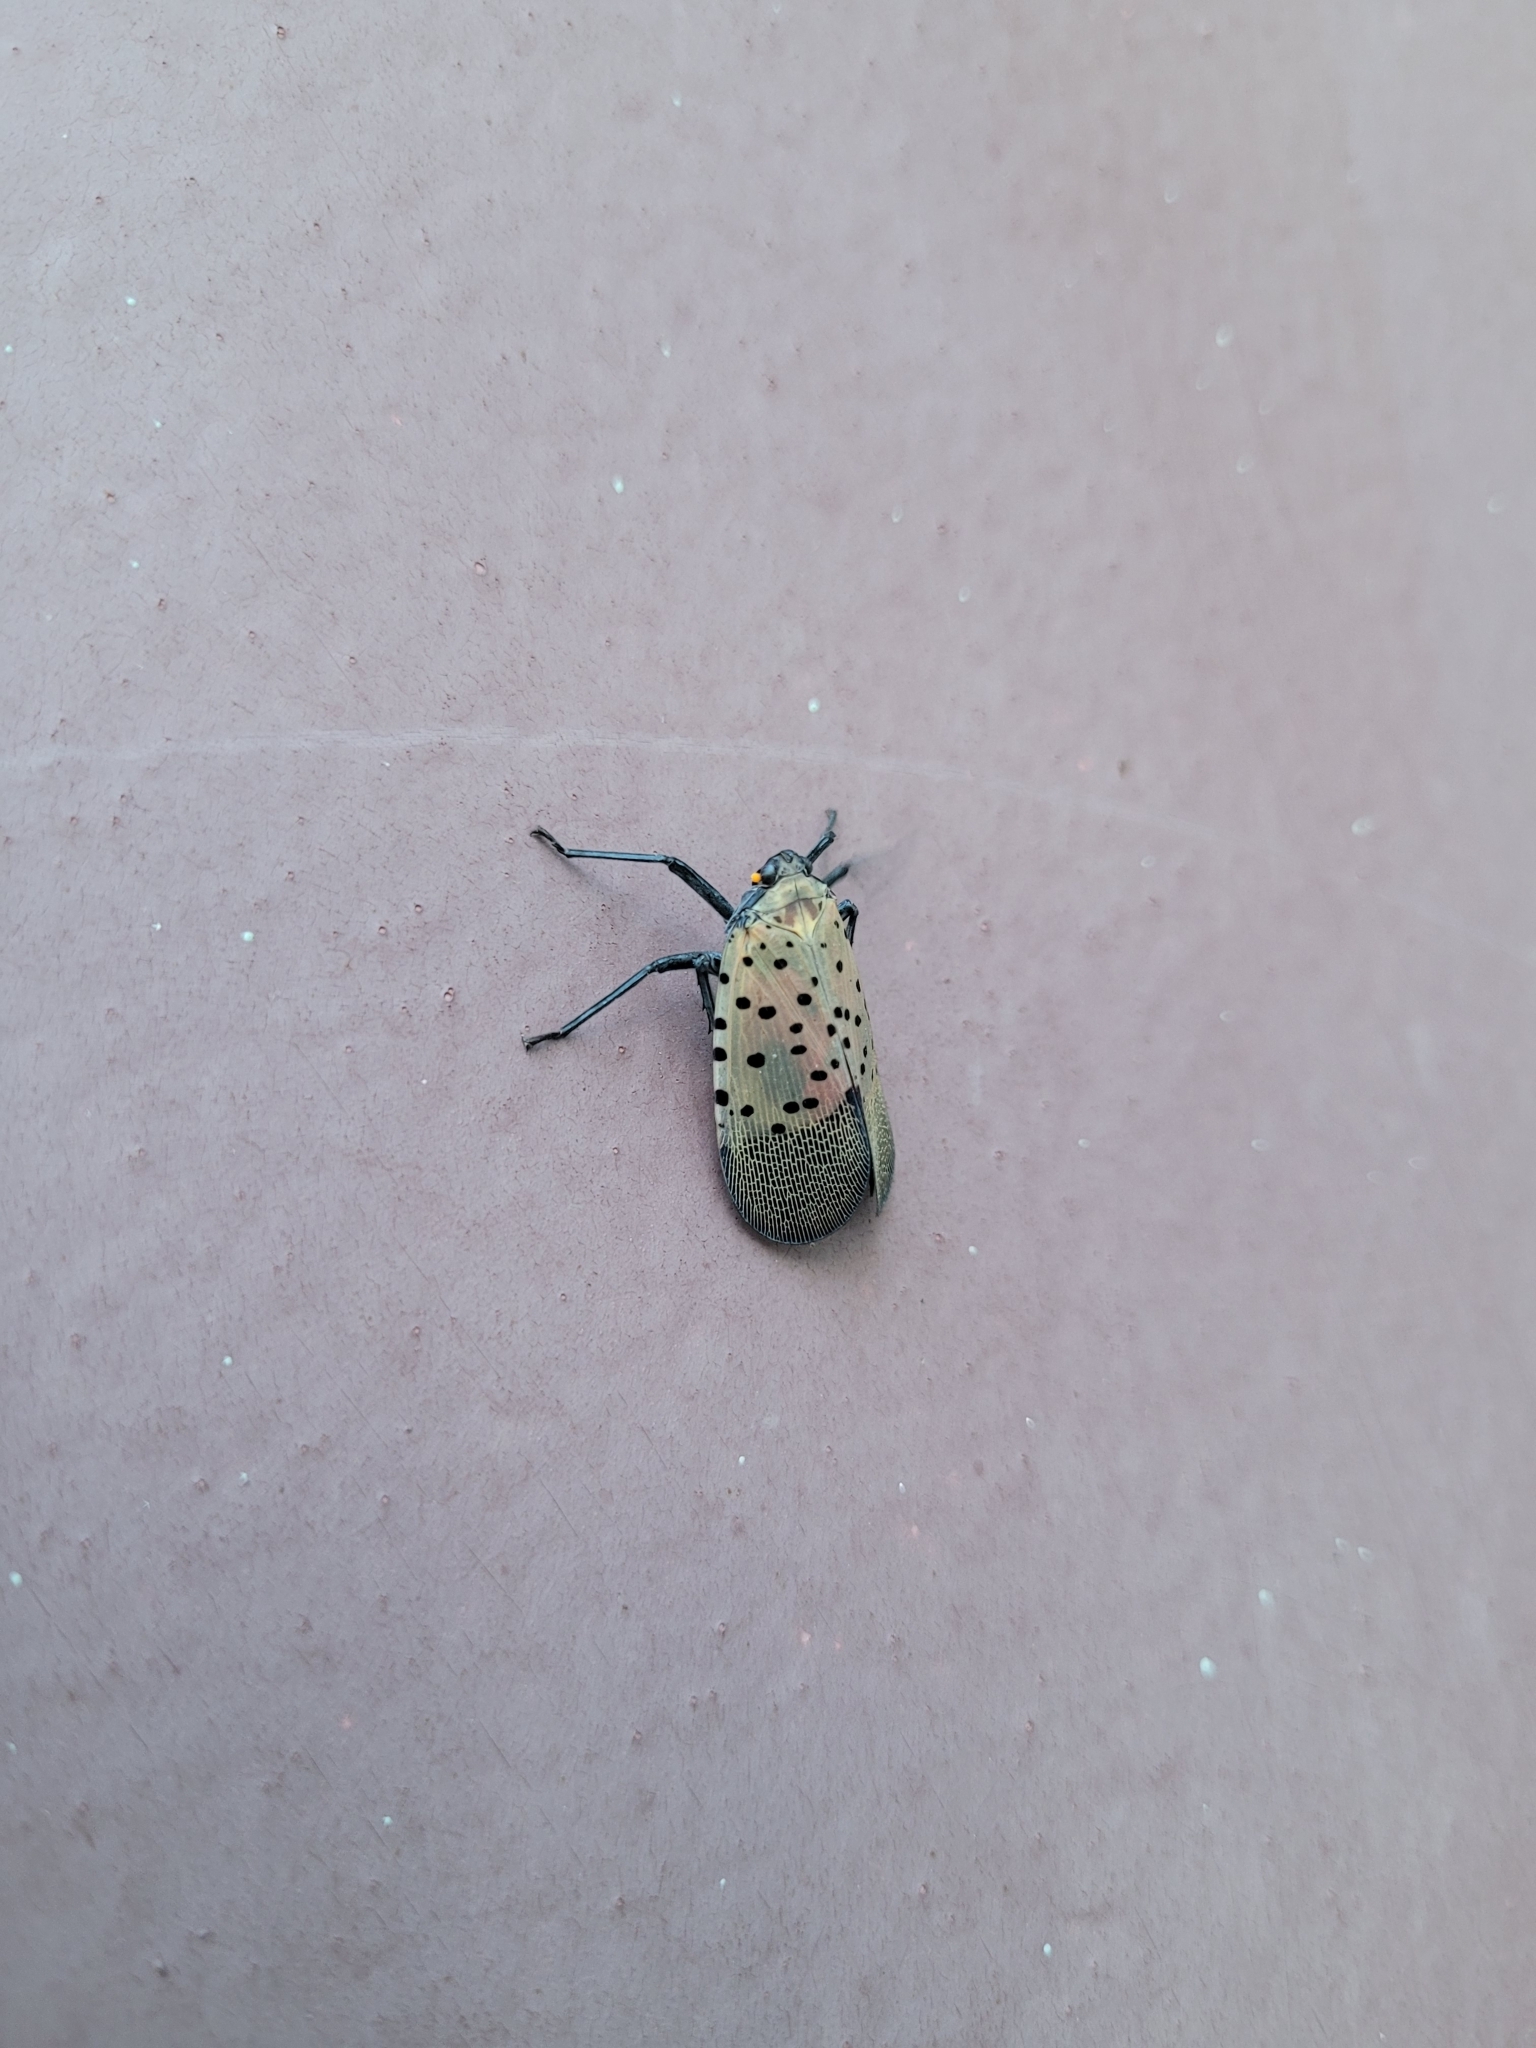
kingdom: Animalia
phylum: Arthropoda
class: Insecta
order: Hemiptera
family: Fulgoridae
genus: Lycorma
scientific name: Lycorma delicatula
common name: Spotted lanternfly
